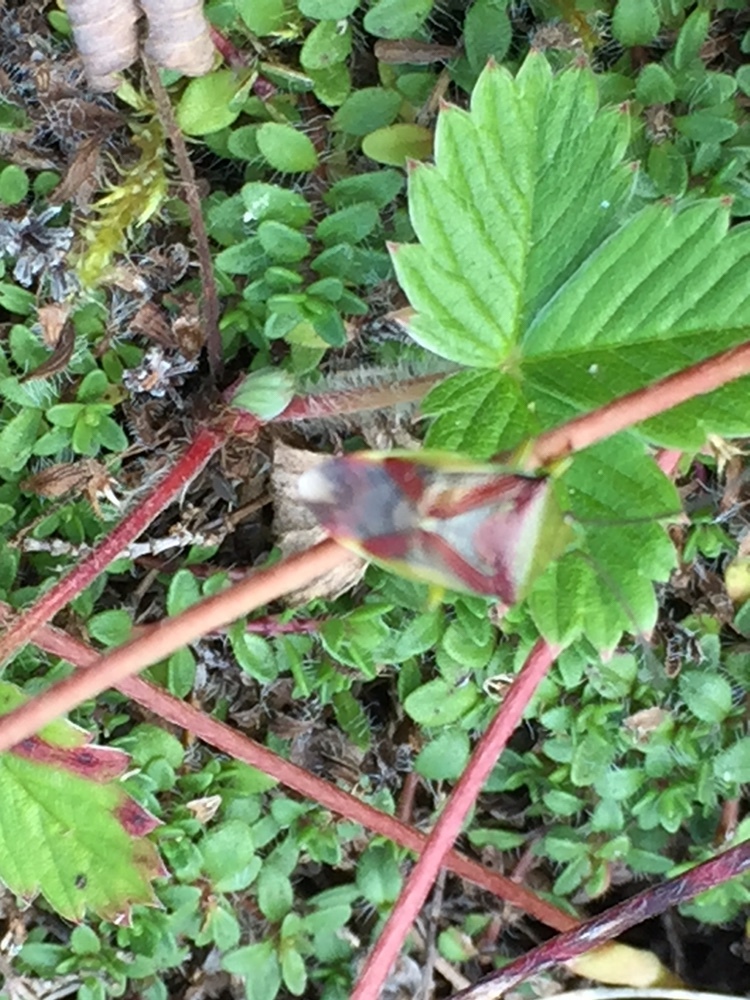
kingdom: Animalia
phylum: Arthropoda
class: Insecta
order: Hemiptera
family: Acanthosomatidae
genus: Elasmostethus
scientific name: Elasmostethus interstinctus
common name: Birch shieldbug
